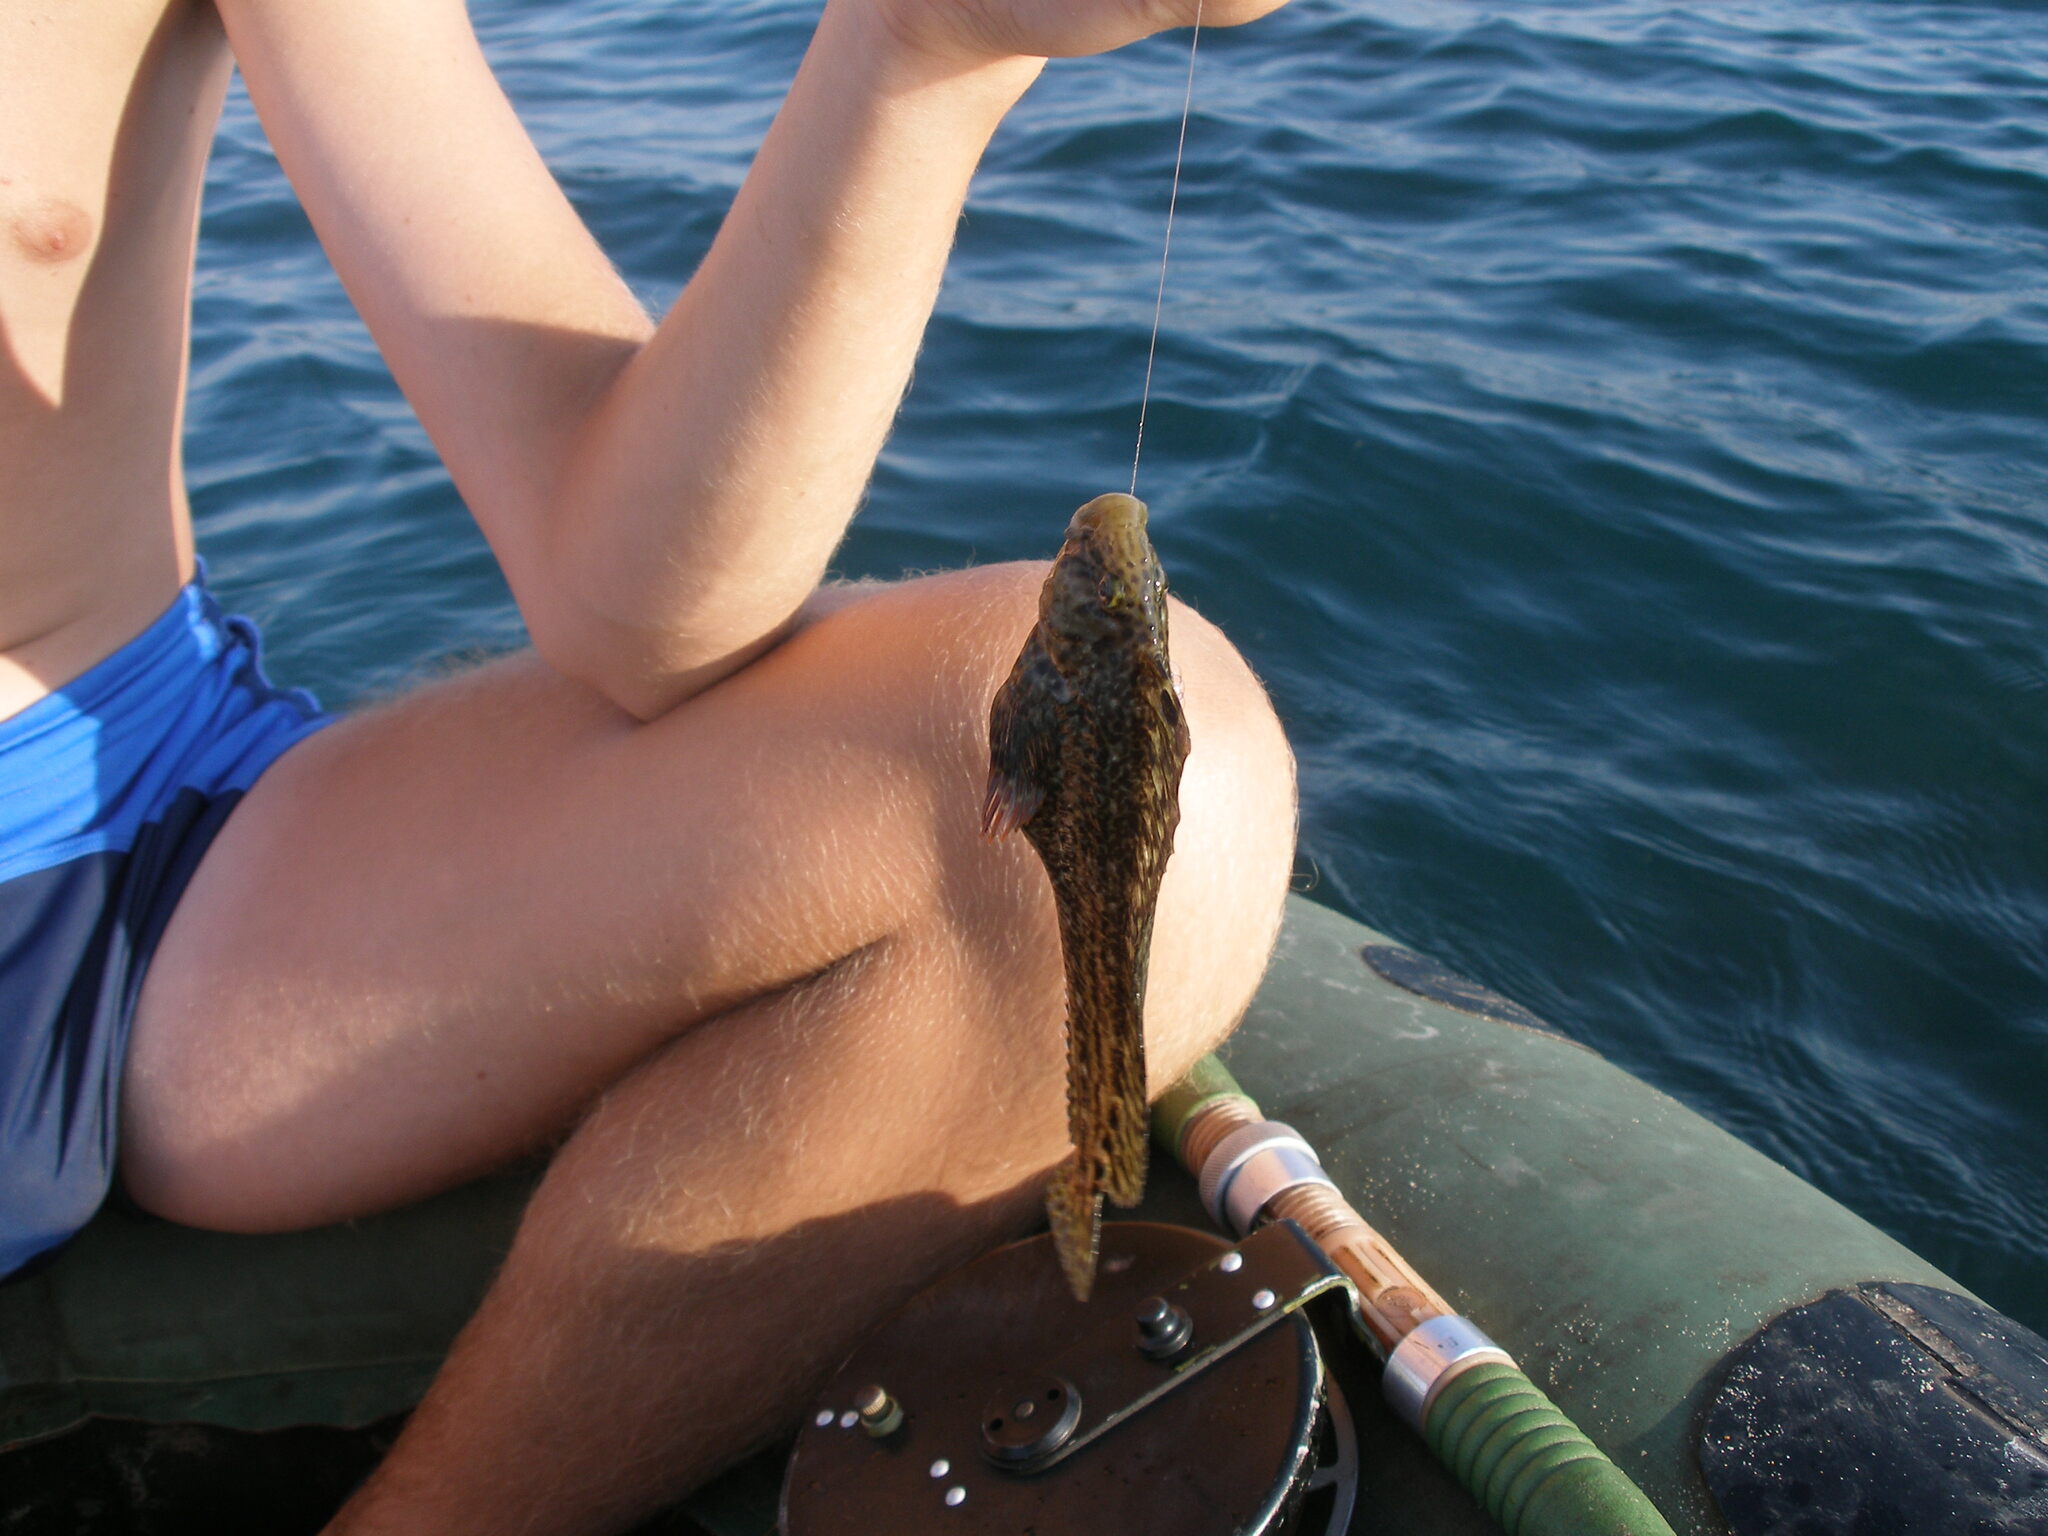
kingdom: Animalia
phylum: Chordata
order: Perciformes
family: Blenniidae
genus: Parablennius
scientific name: Parablennius sanguinolentus
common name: Black sea blenny
